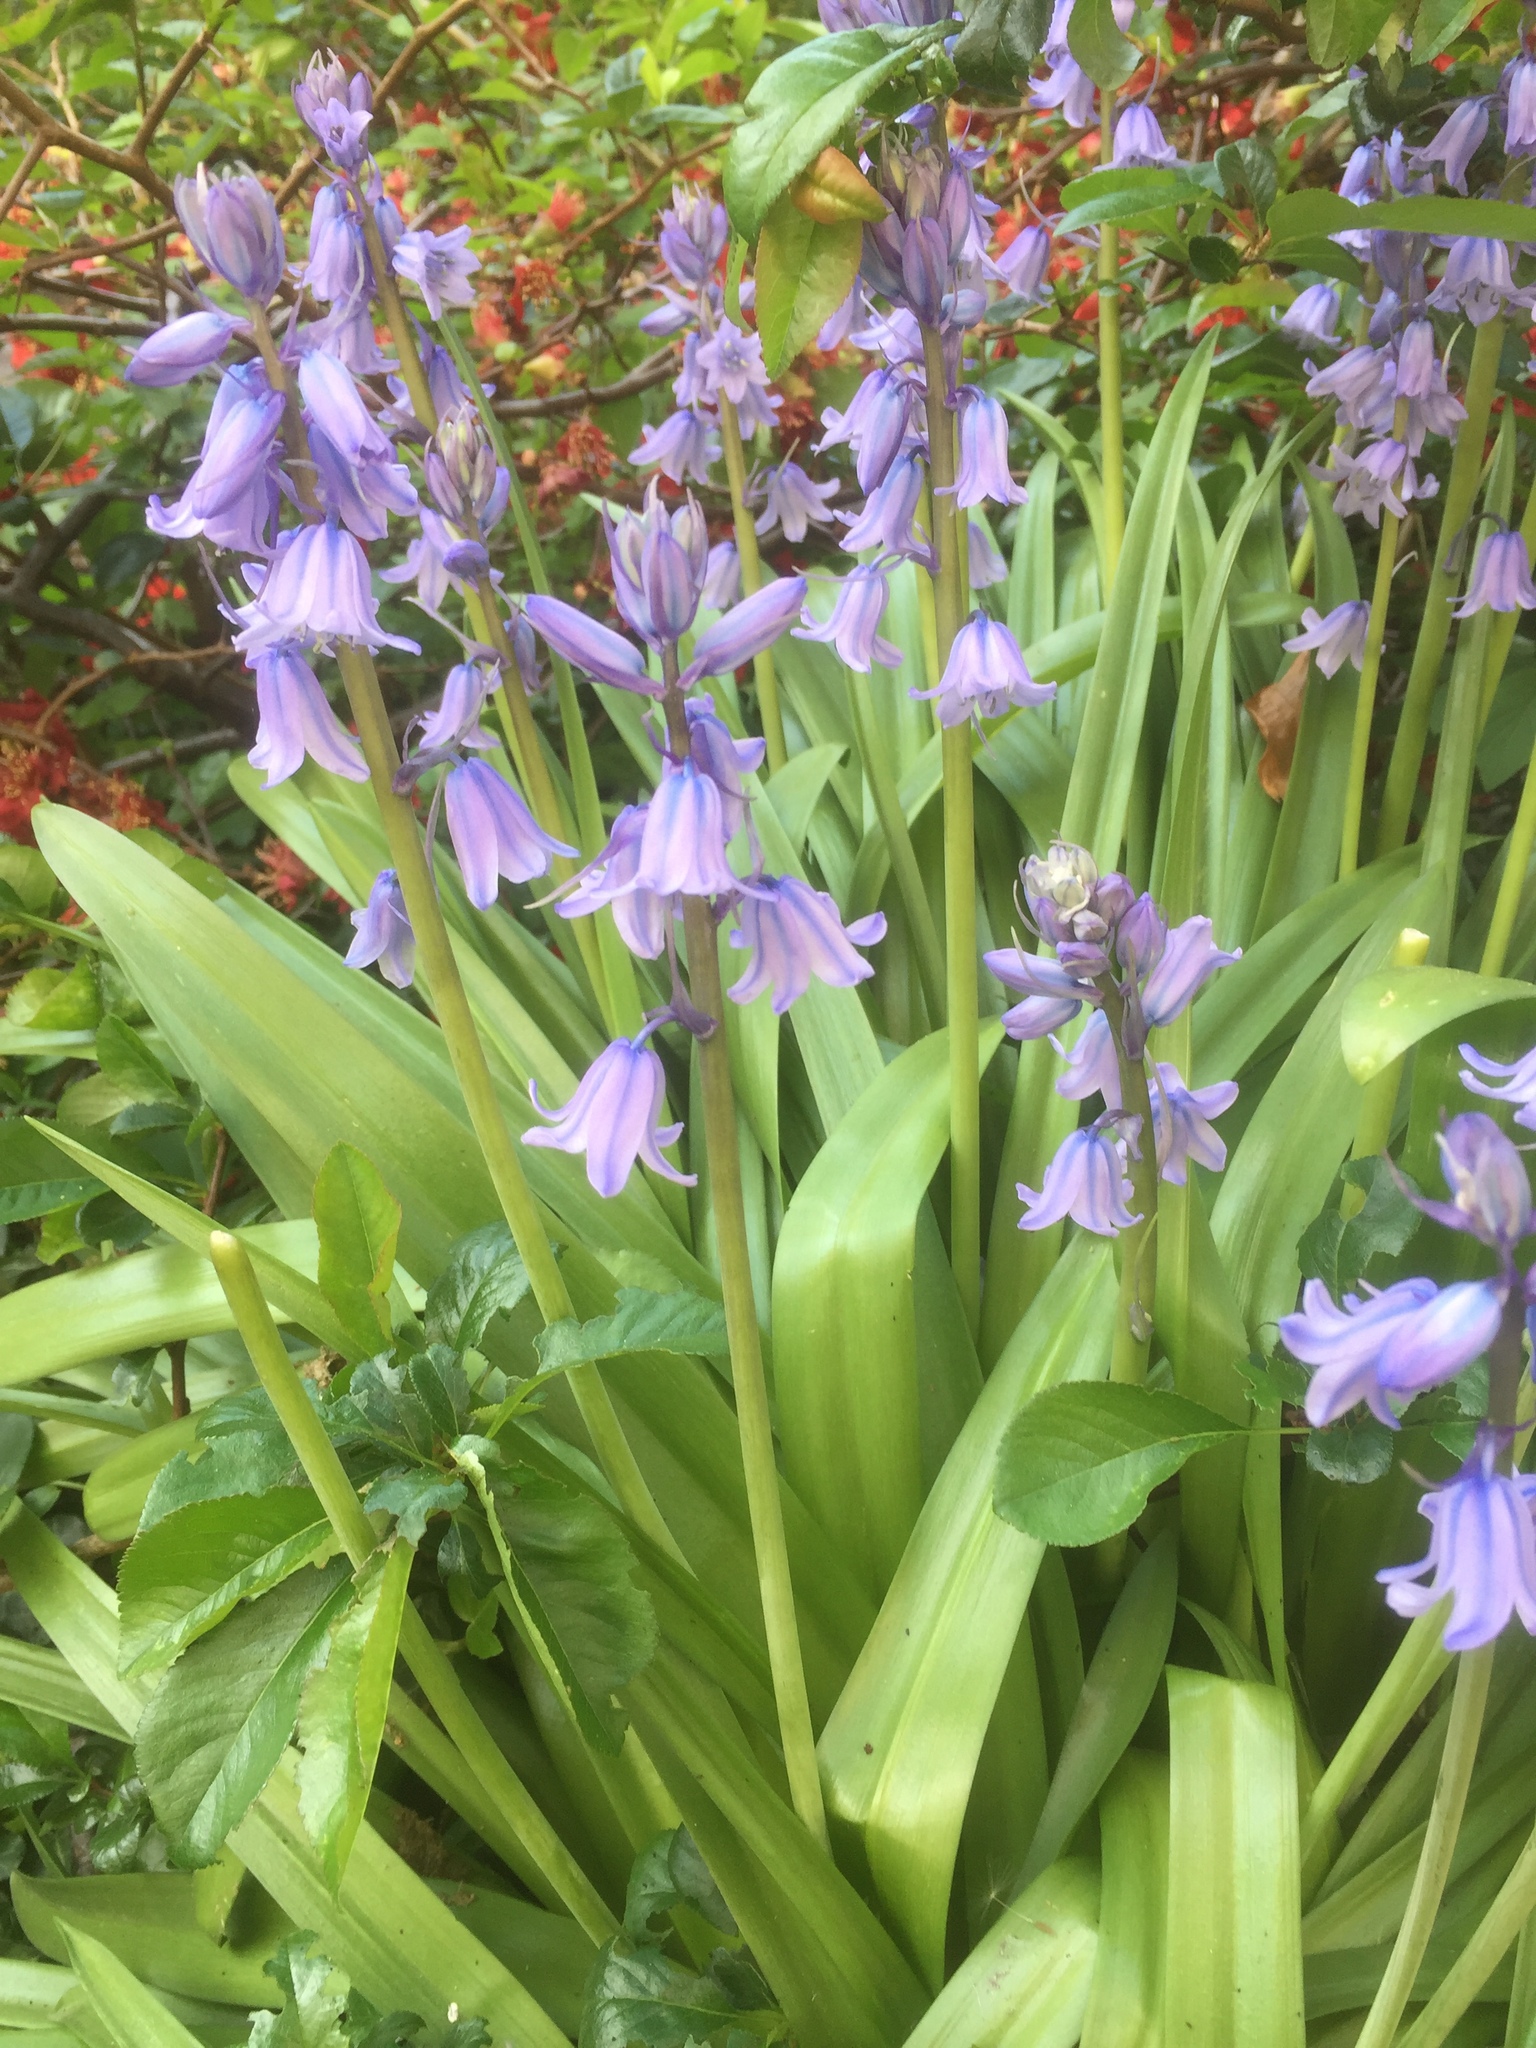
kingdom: Plantae
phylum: Tracheophyta
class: Liliopsida
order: Asparagales
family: Asparagaceae
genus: Hyacinthoides
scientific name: Hyacinthoides massartiana
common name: Hyacinthoides
